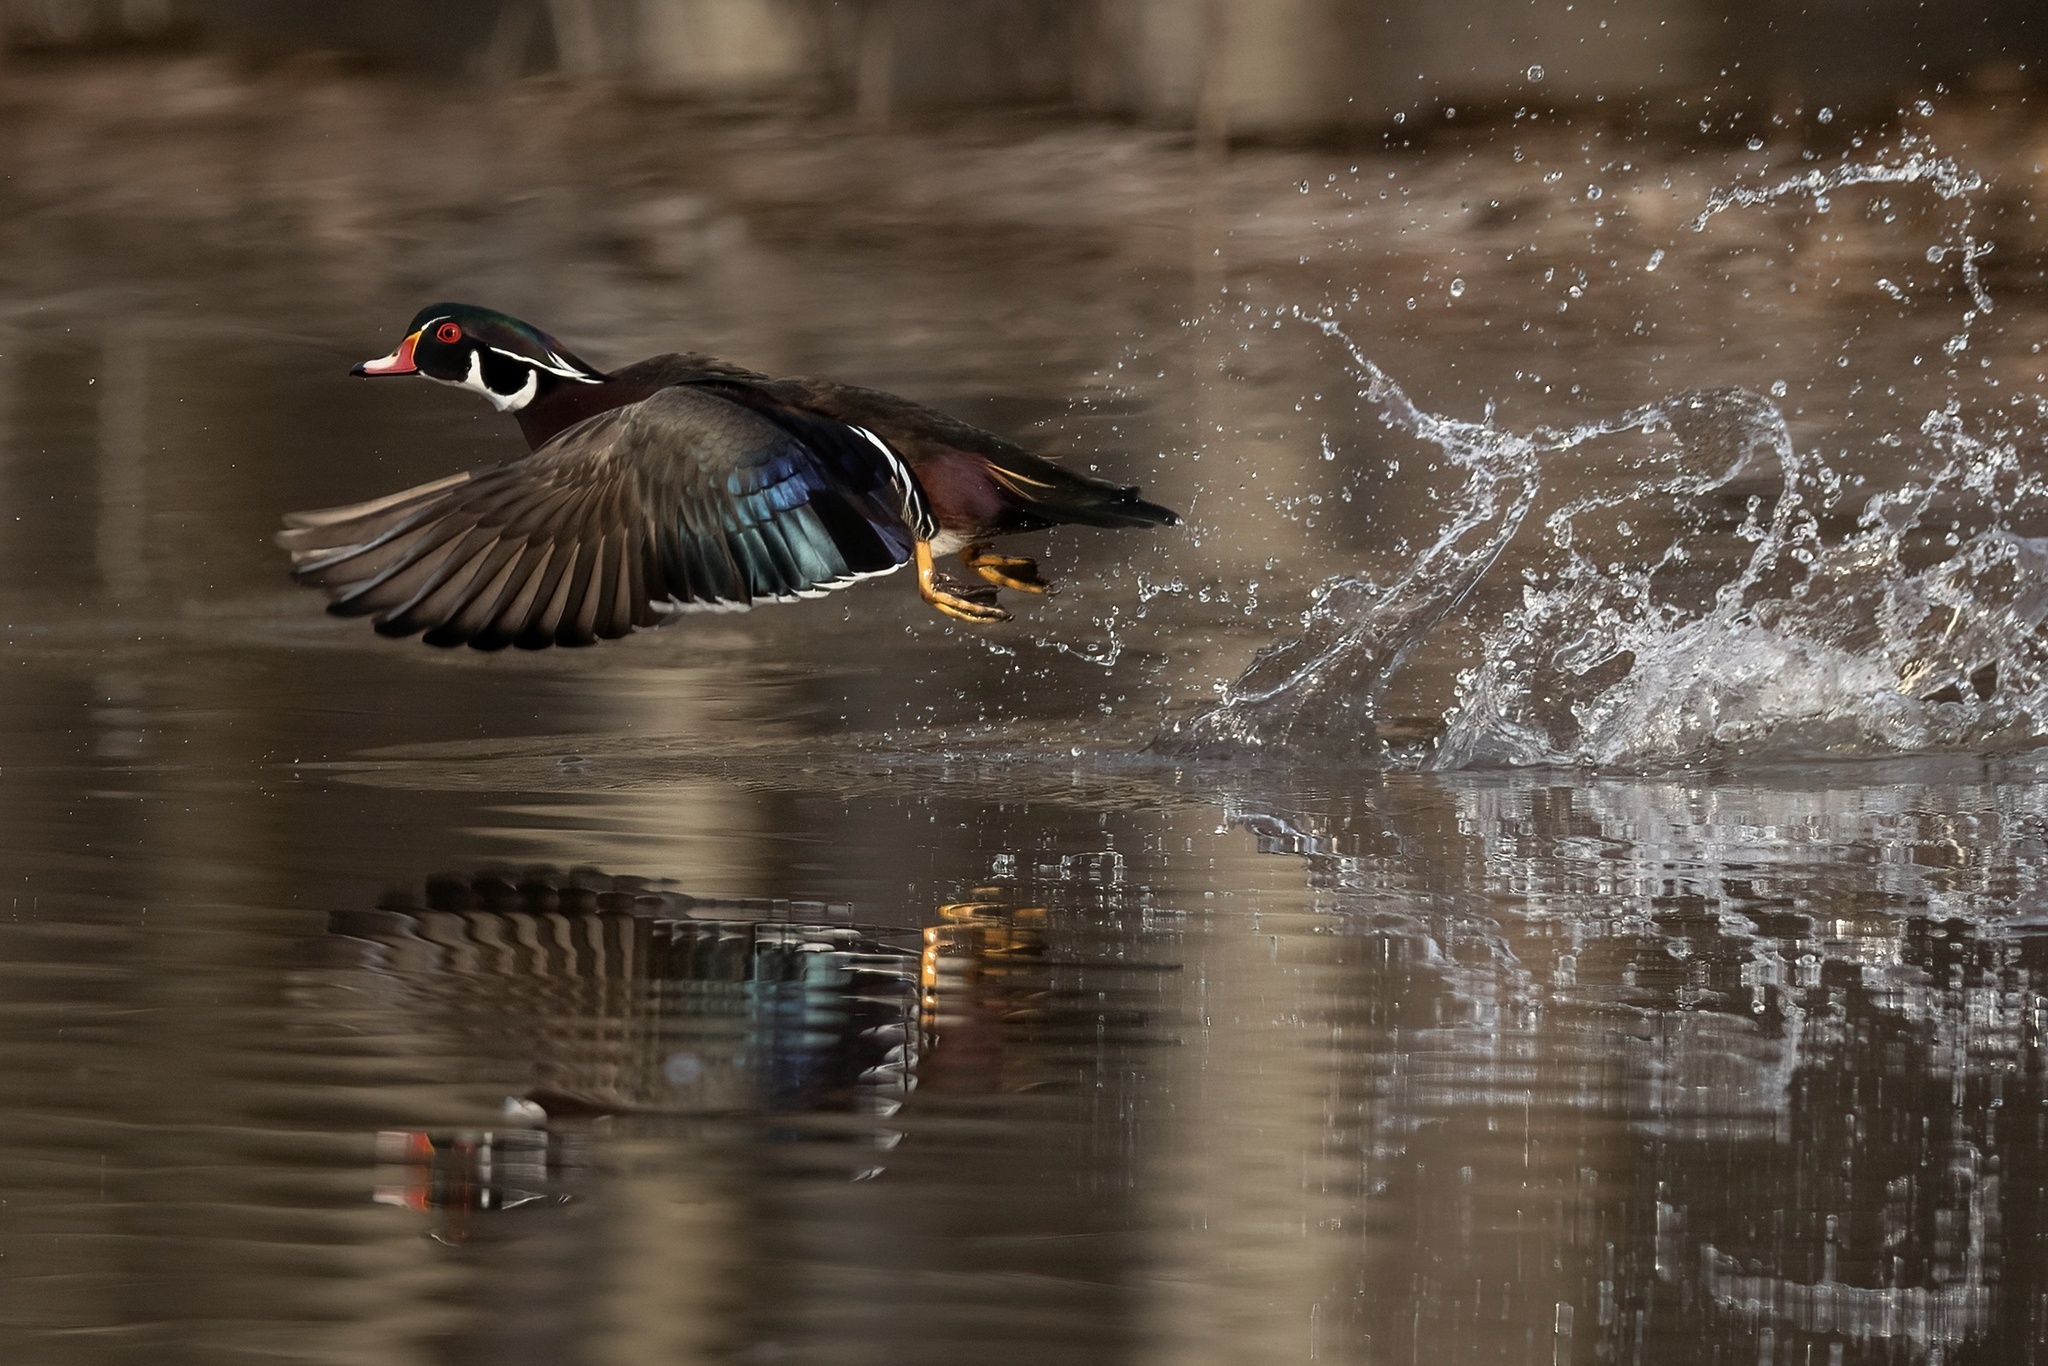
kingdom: Animalia
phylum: Chordata
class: Aves
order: Anseriformes
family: Anatidae
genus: Aix
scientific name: Aix sponsa
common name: Wood duck
